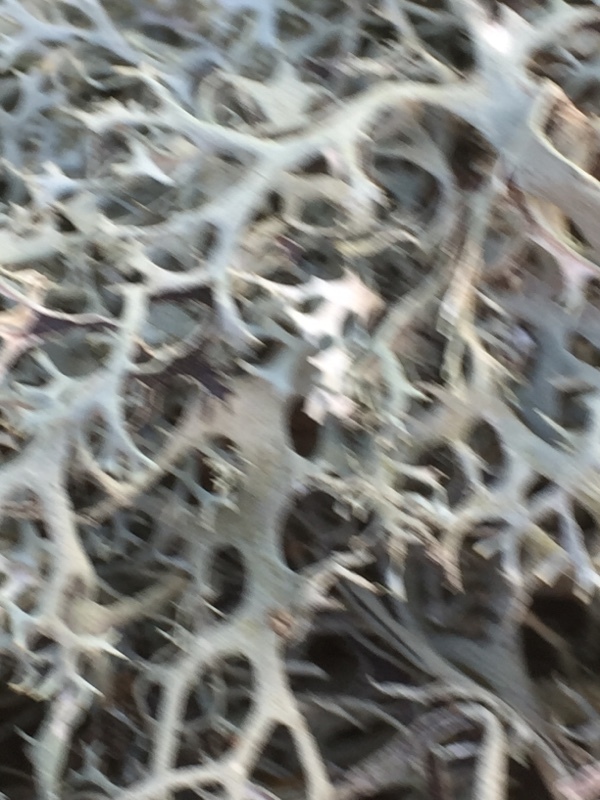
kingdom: Fungi
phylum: Ascomycota
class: Lecanoromycetes
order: Lecanorales
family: Parmeliaceae
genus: Pseudevernia
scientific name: Pseudevernia furfuracea
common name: Tree moss
